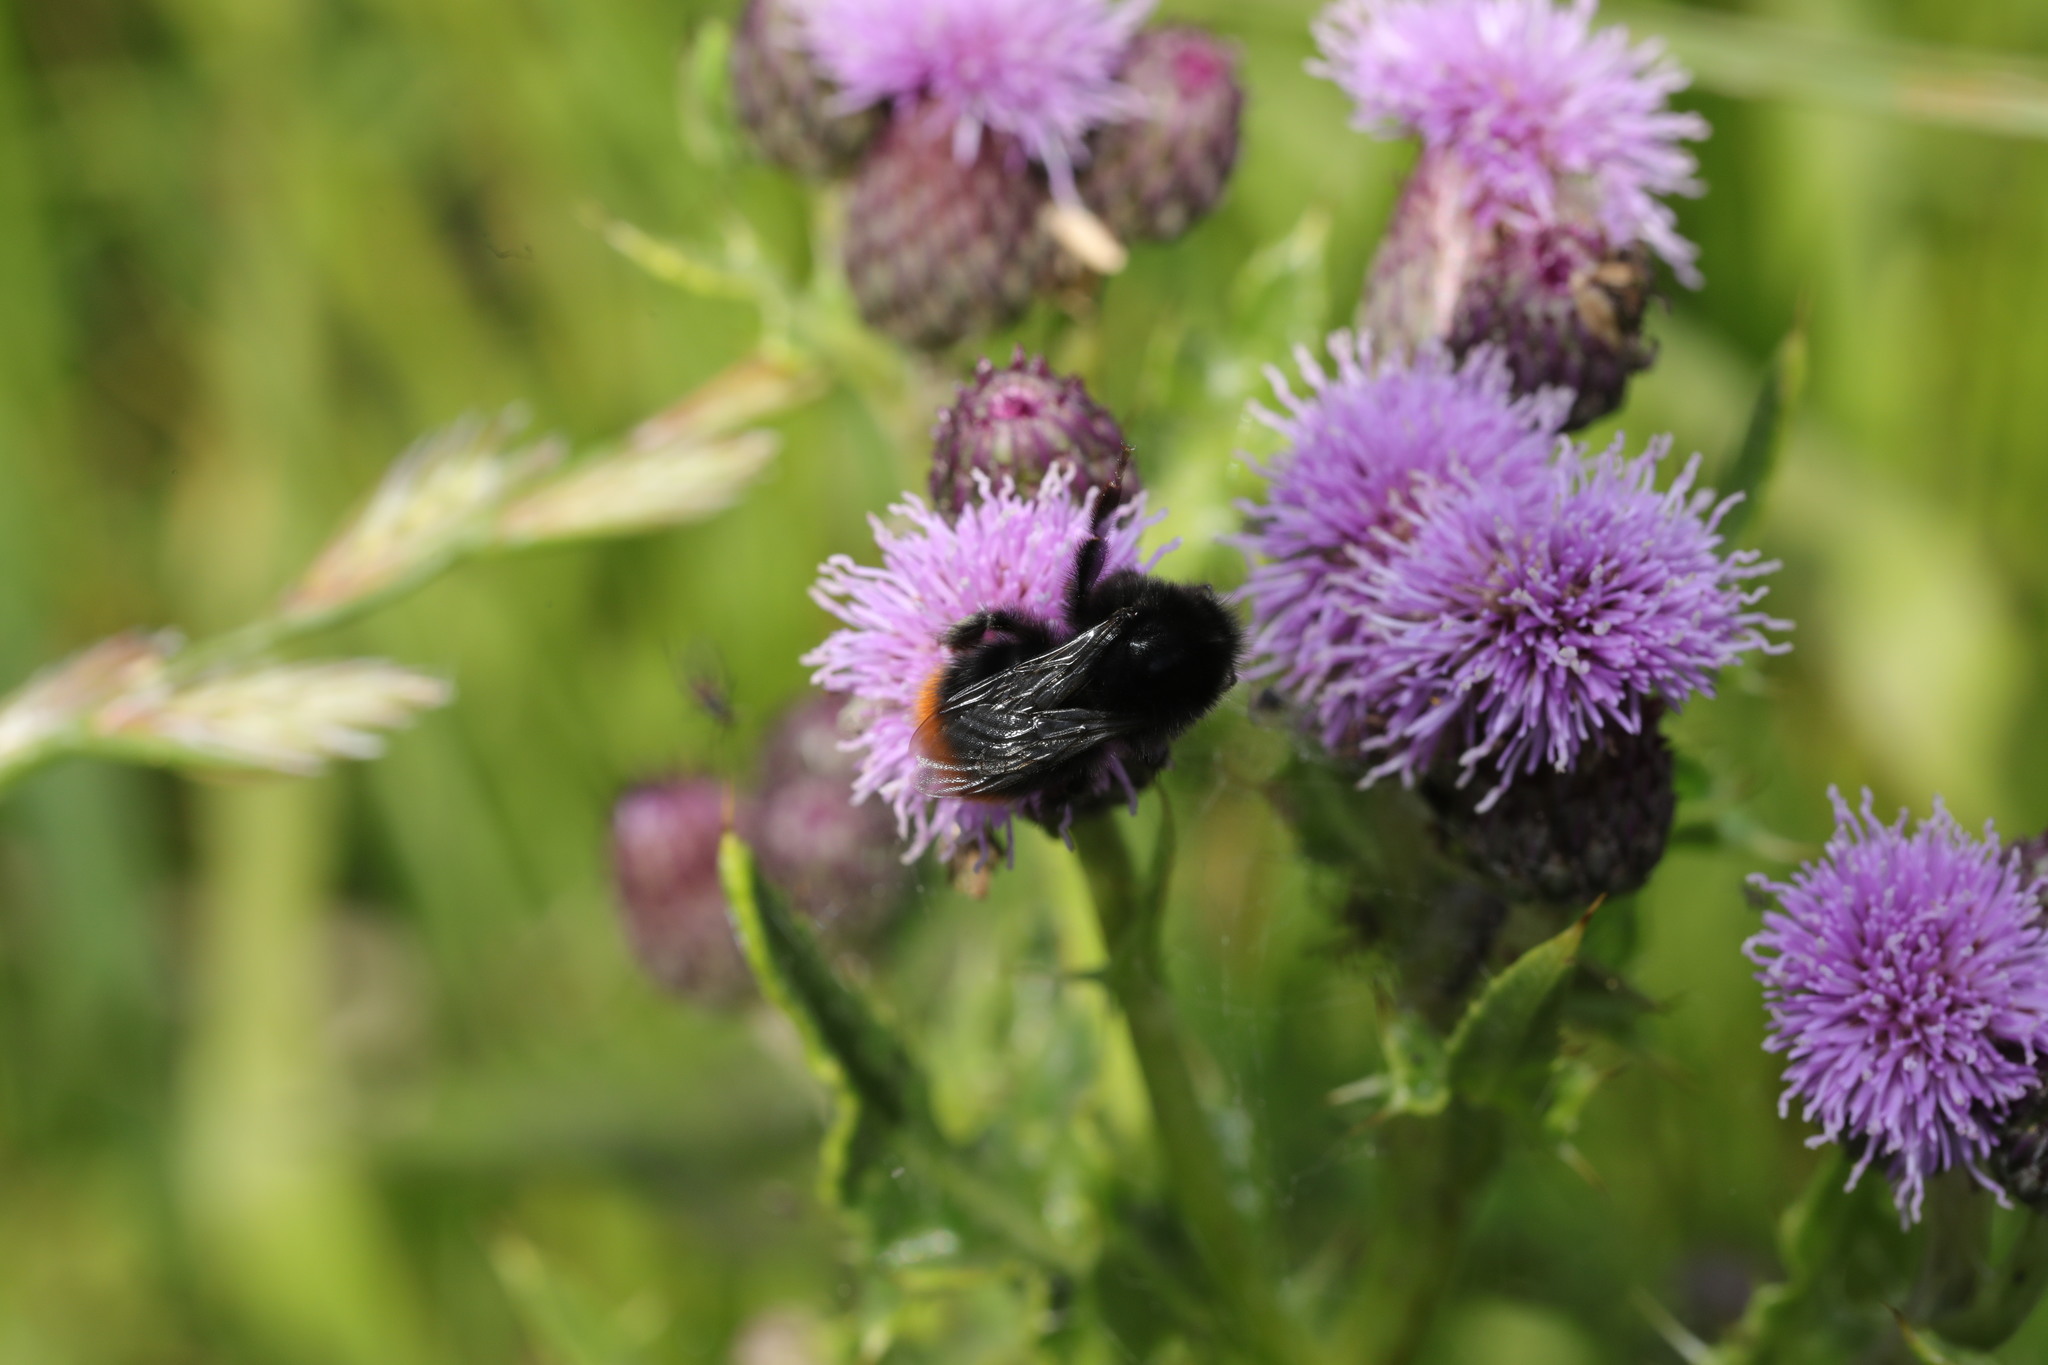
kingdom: Animalia
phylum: Arthropoda
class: Insecta
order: Hymenoptera
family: Apidae
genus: Bombus
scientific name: Bombus lapidarius
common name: Large red-tailed humble-bee
